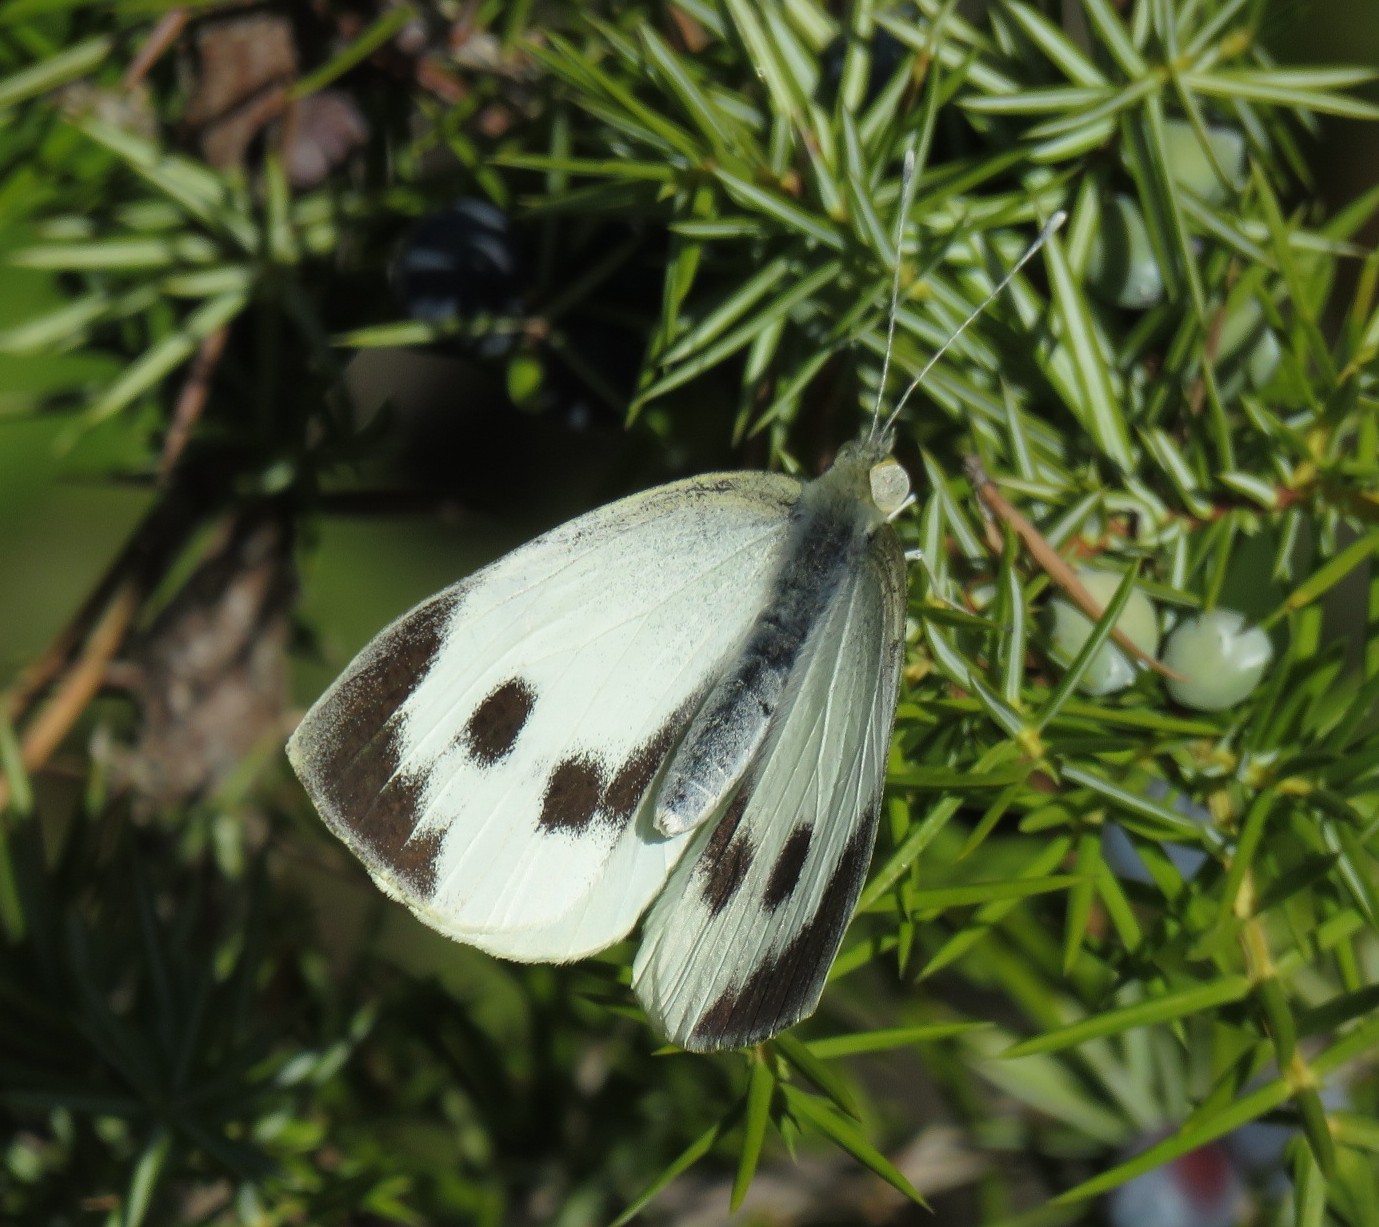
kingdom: Animalia
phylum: Arthropoda
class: Insecta
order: Lepidoptera
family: Pieridae
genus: Pieris
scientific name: Pieris brassicae
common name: Large white
